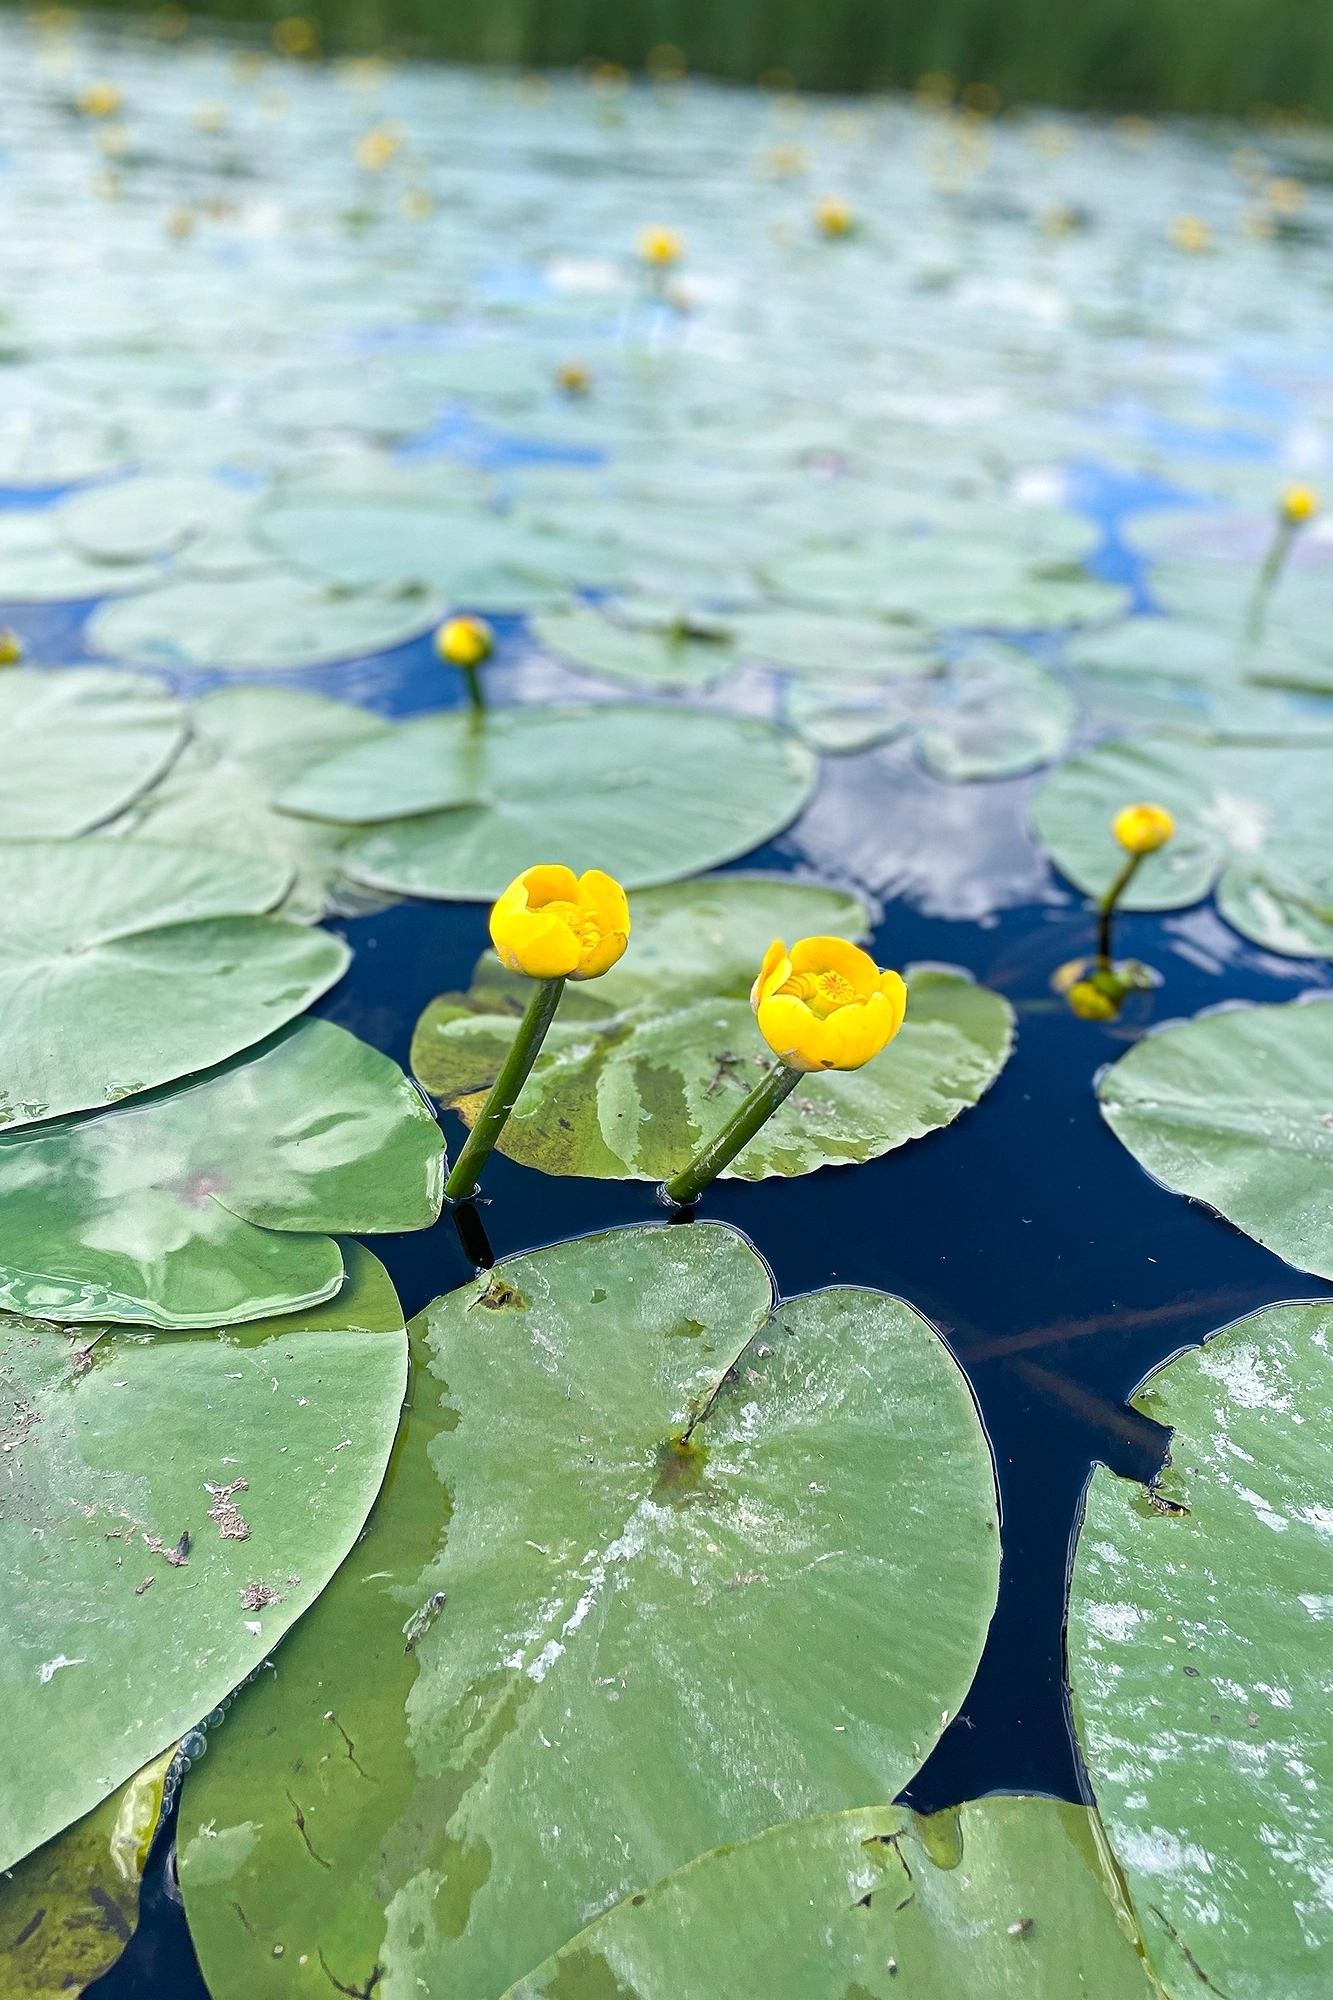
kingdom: Plantae
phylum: Tracheophyta
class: Magnoliopsida
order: Nymphaeales
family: Nymphaeaceae
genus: Nuphar
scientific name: Nuphar lutea
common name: Yellow water-lily
